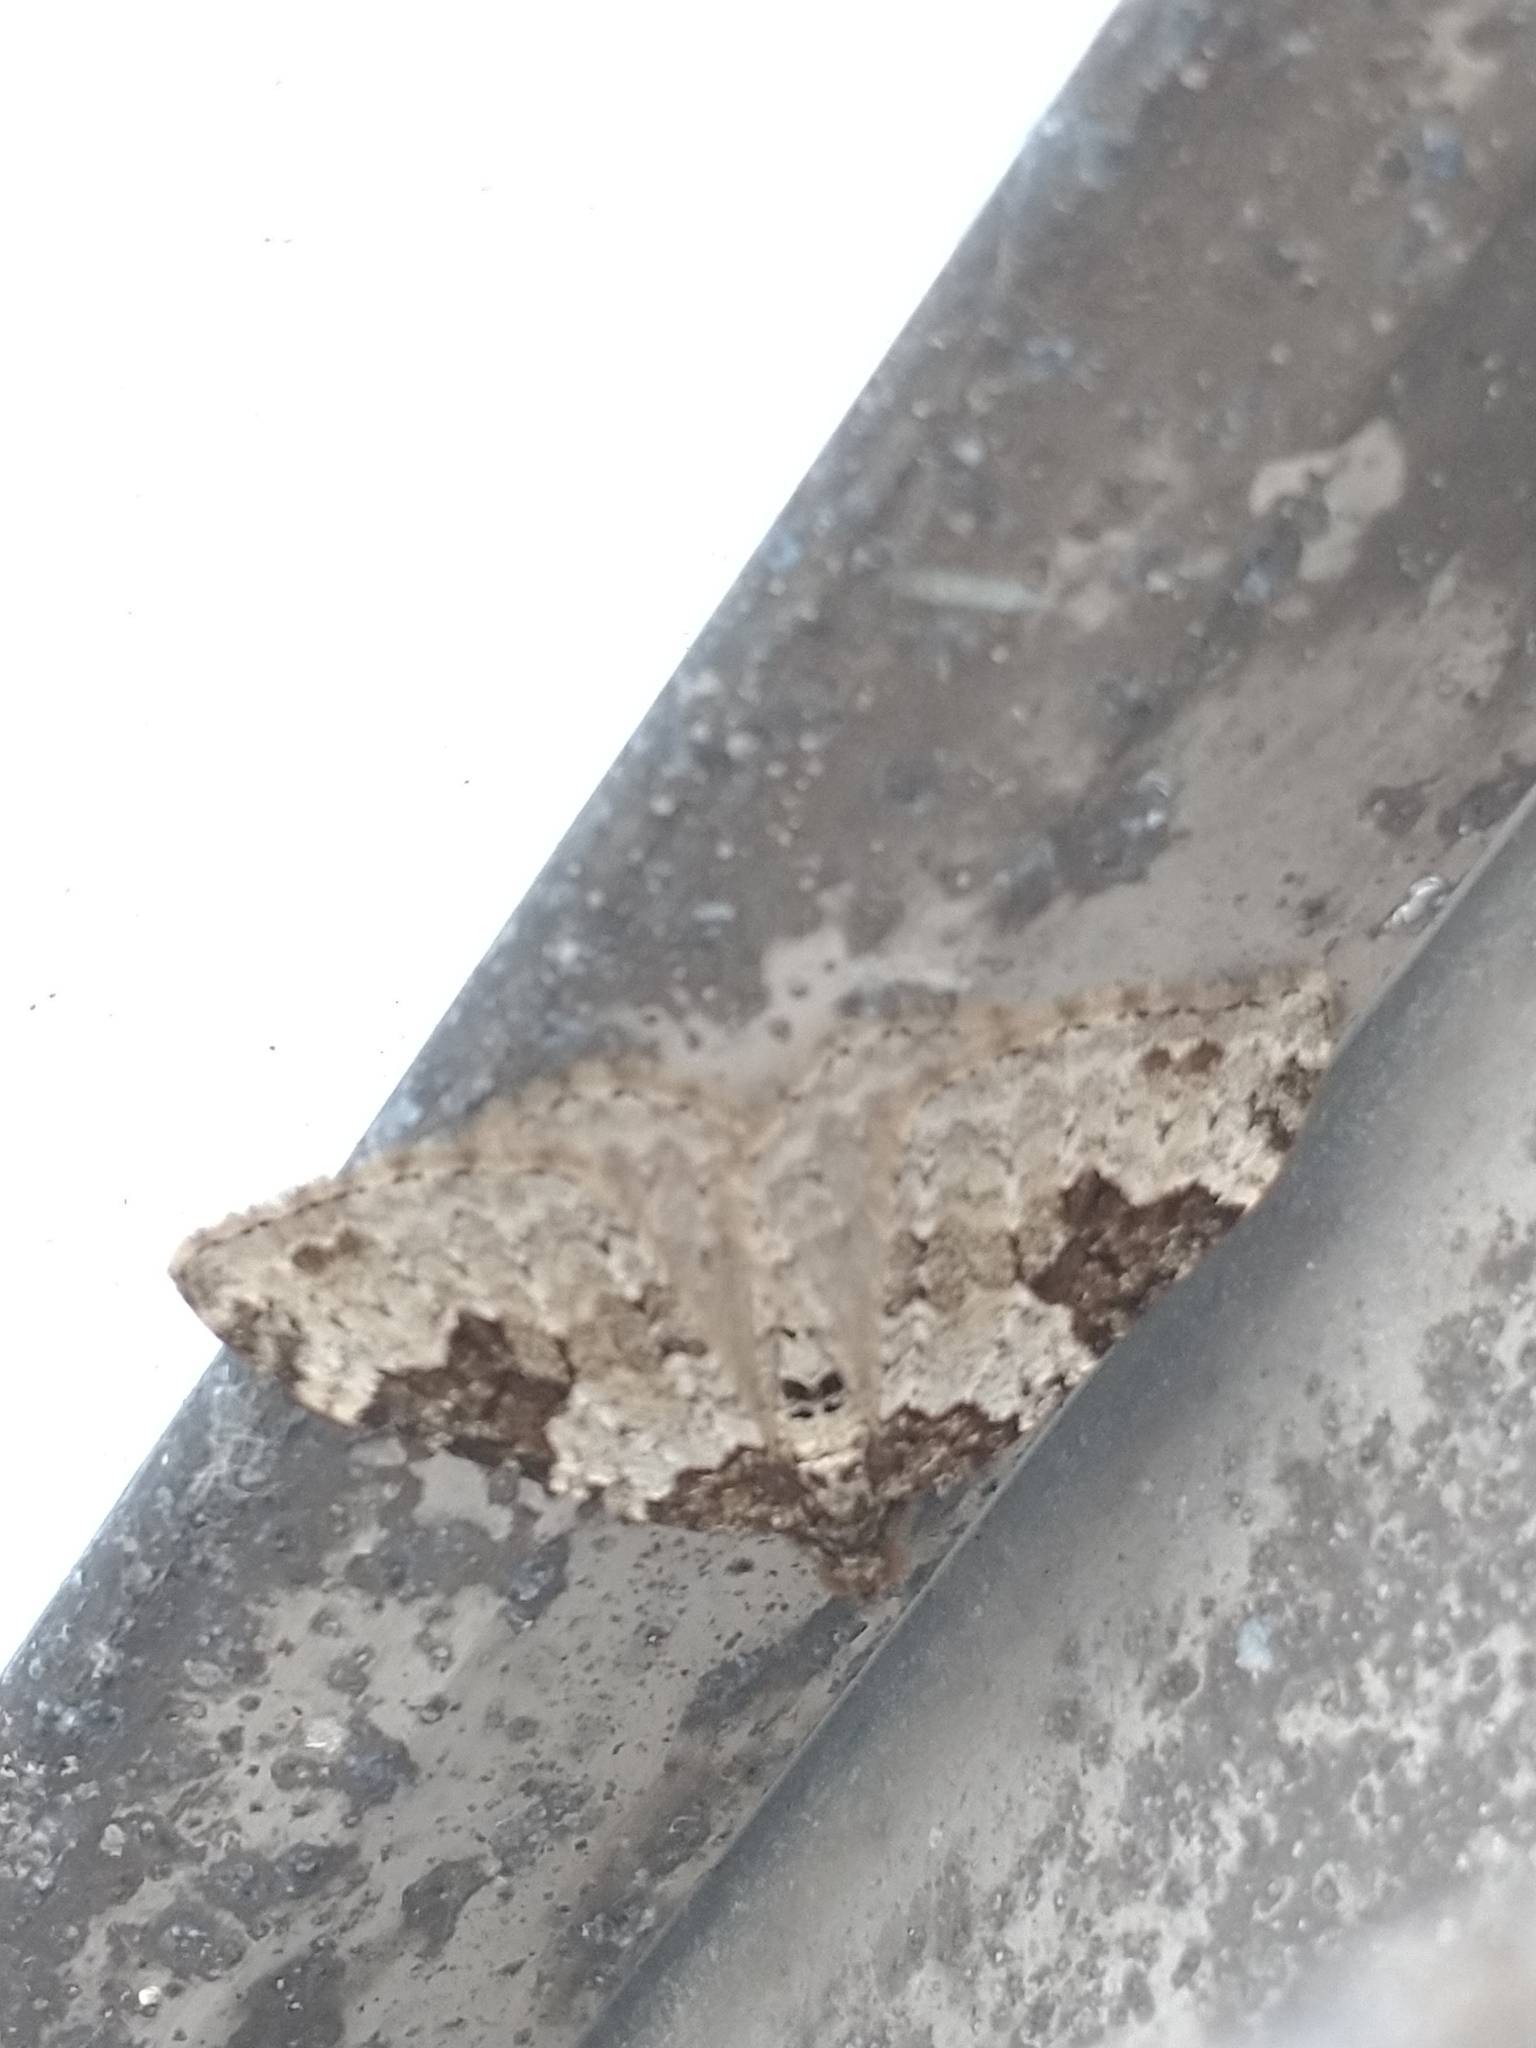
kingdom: Animalia
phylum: Arthropoda
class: Insecta
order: Lepidoptera
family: Geometridae
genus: Xanthorhoe
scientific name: Xanthorhoe fluctuata
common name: Garden carpet
